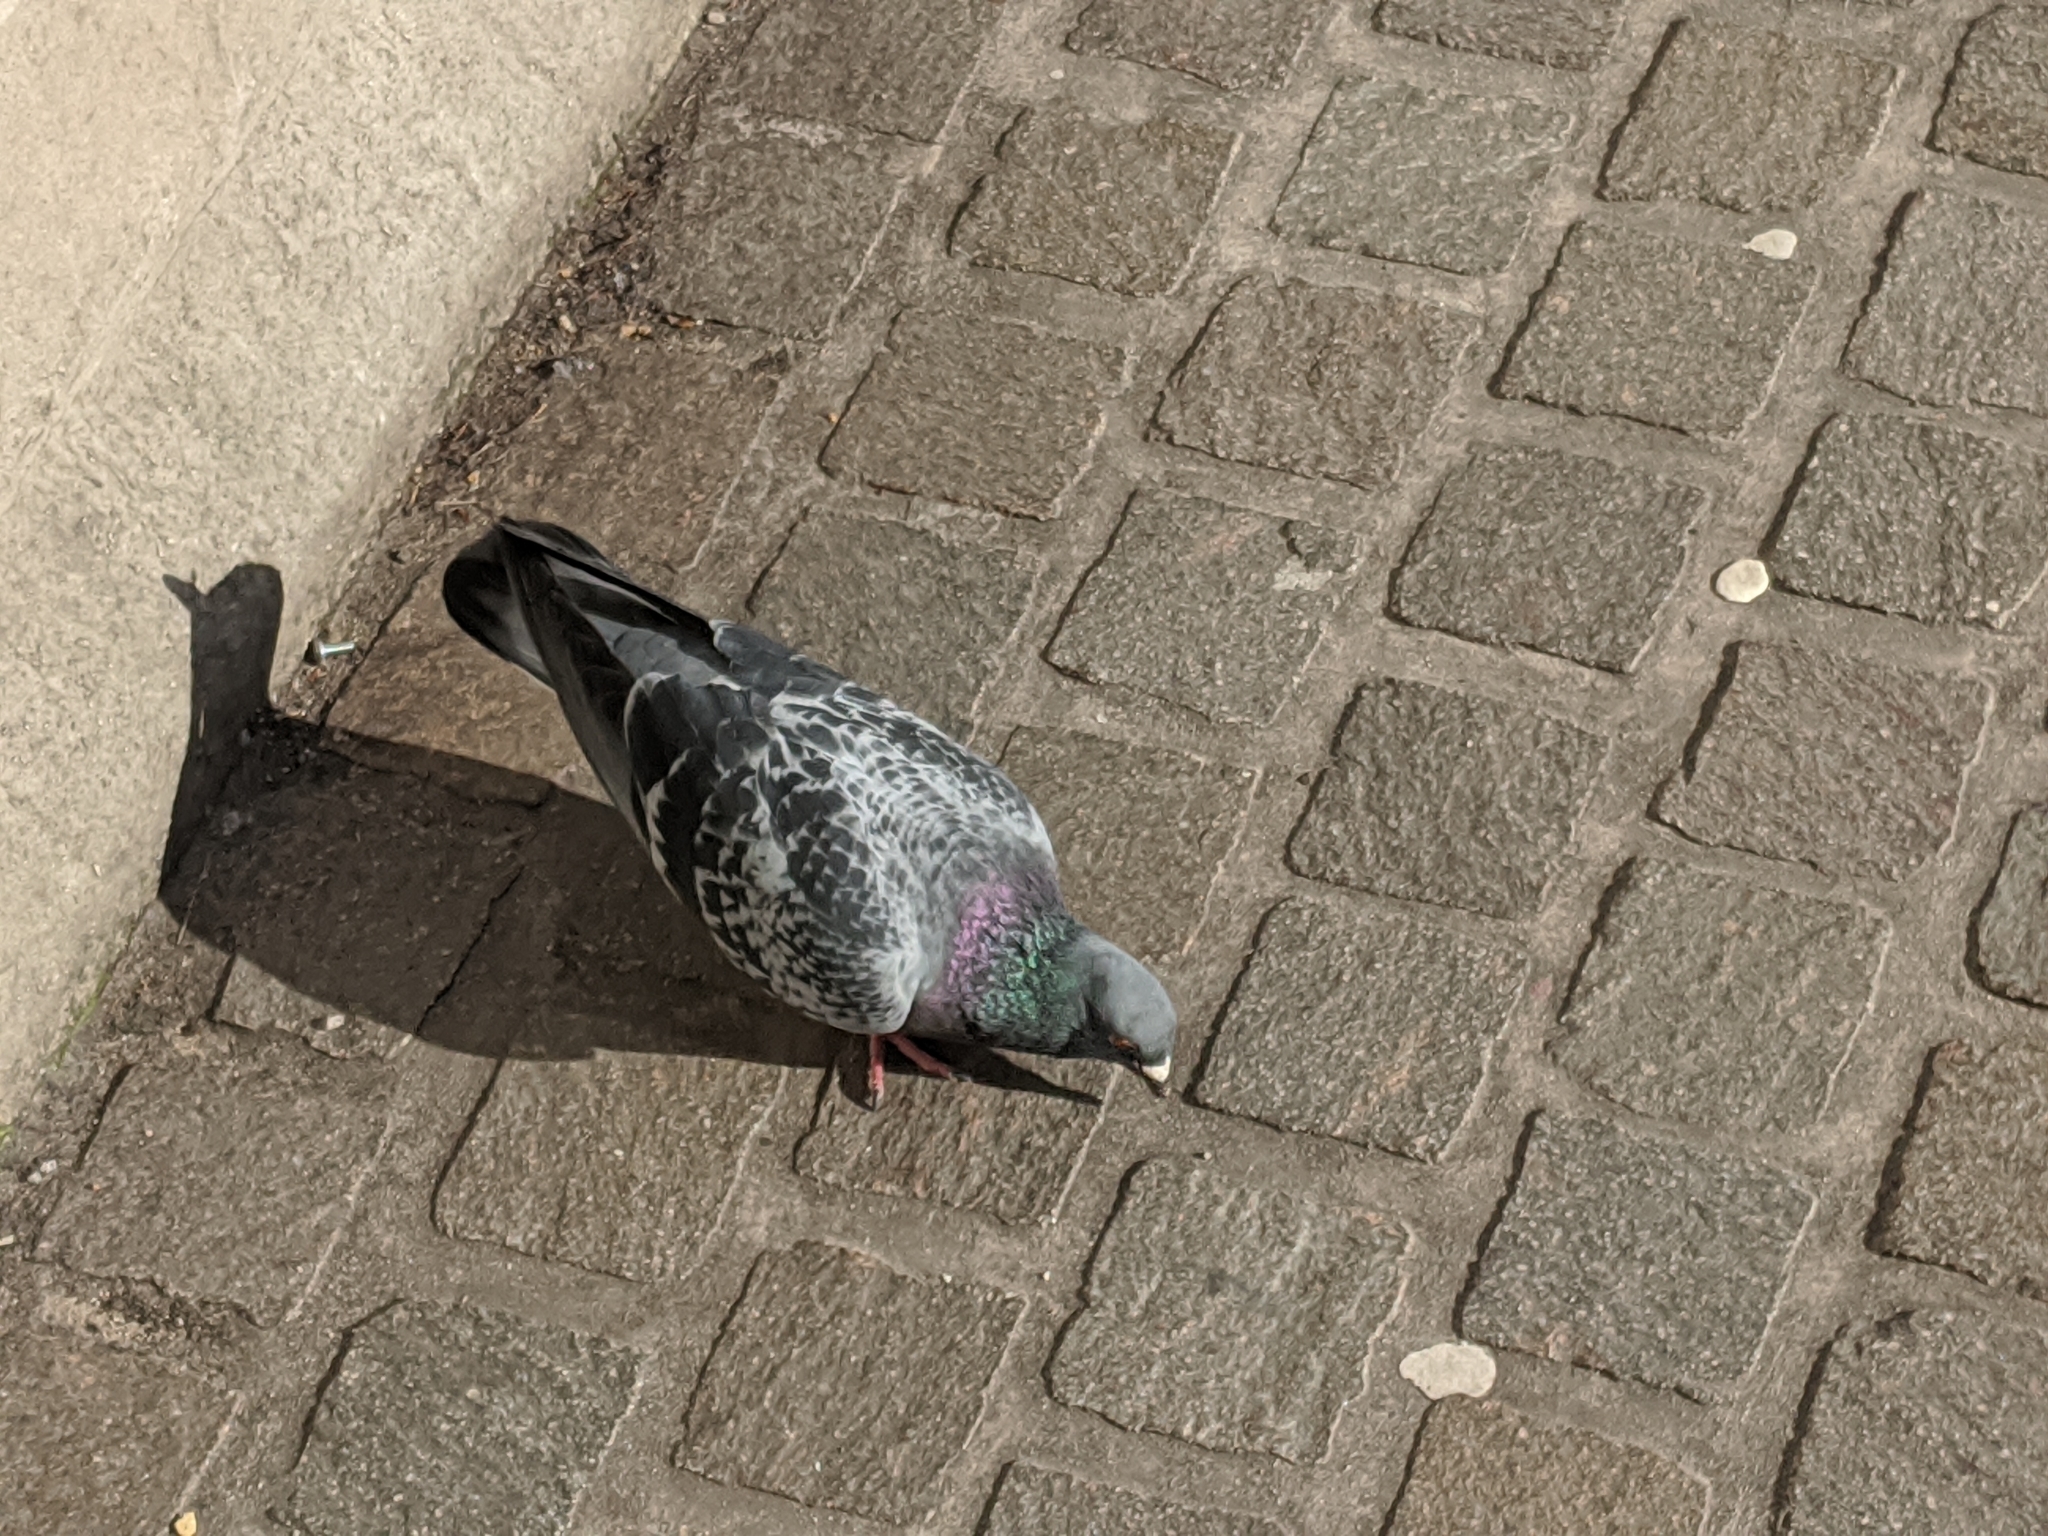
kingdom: Animalia
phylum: Chordata
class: Aves
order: Columbiformes
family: Columbidae
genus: Columba
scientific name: Columba livia
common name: Rock pigeon
